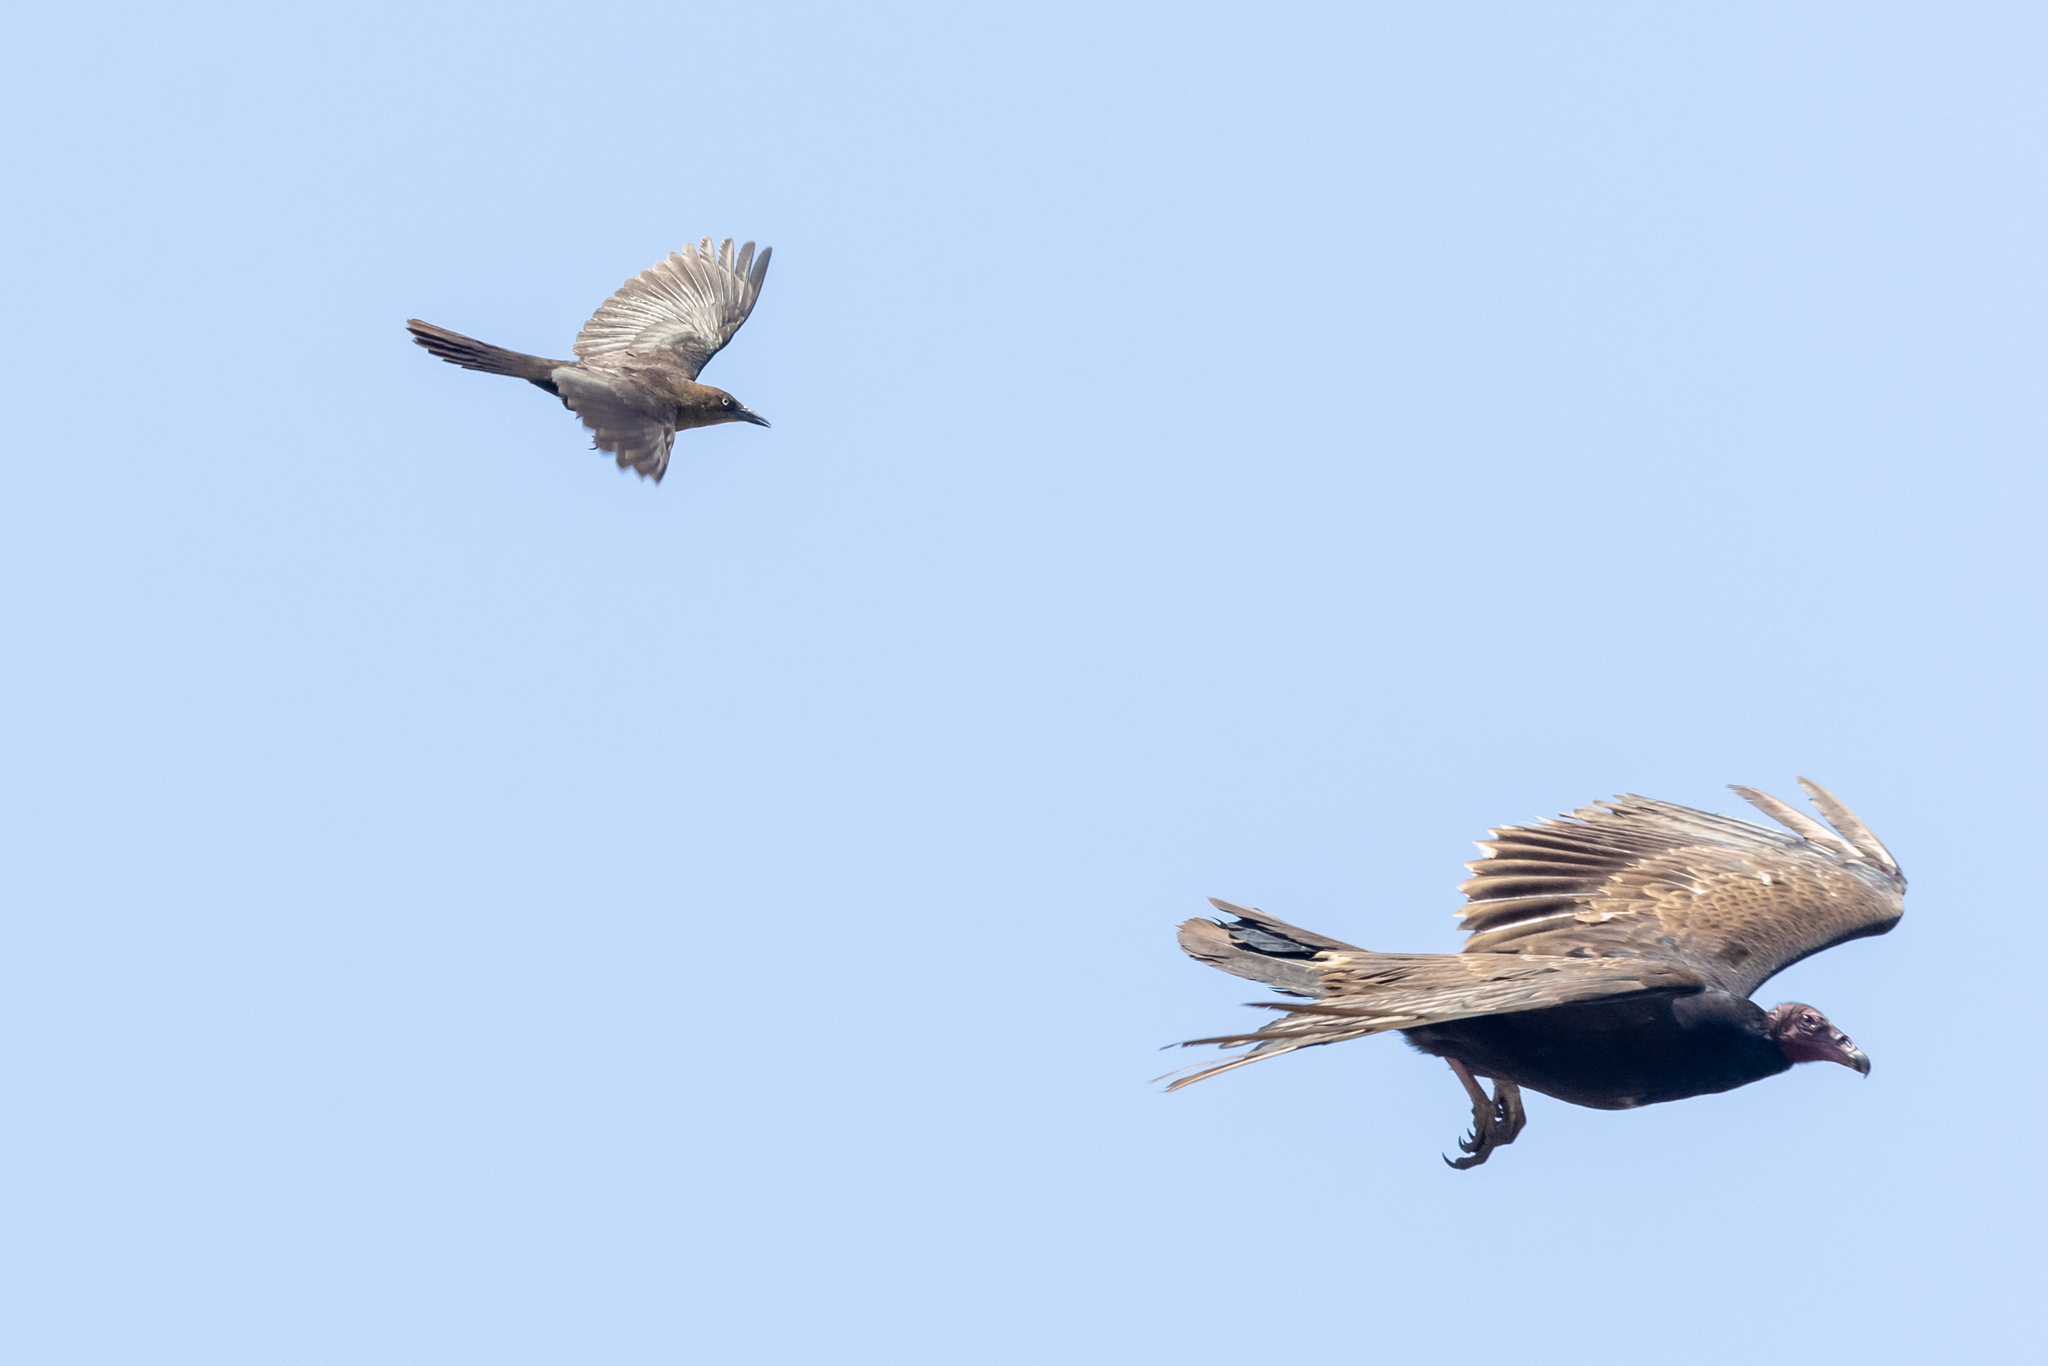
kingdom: Animalia
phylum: Chordata
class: Aves
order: Accipitriformes
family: Cathartidae
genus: Cathartes
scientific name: Cathartes aura
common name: Turkey vulture
